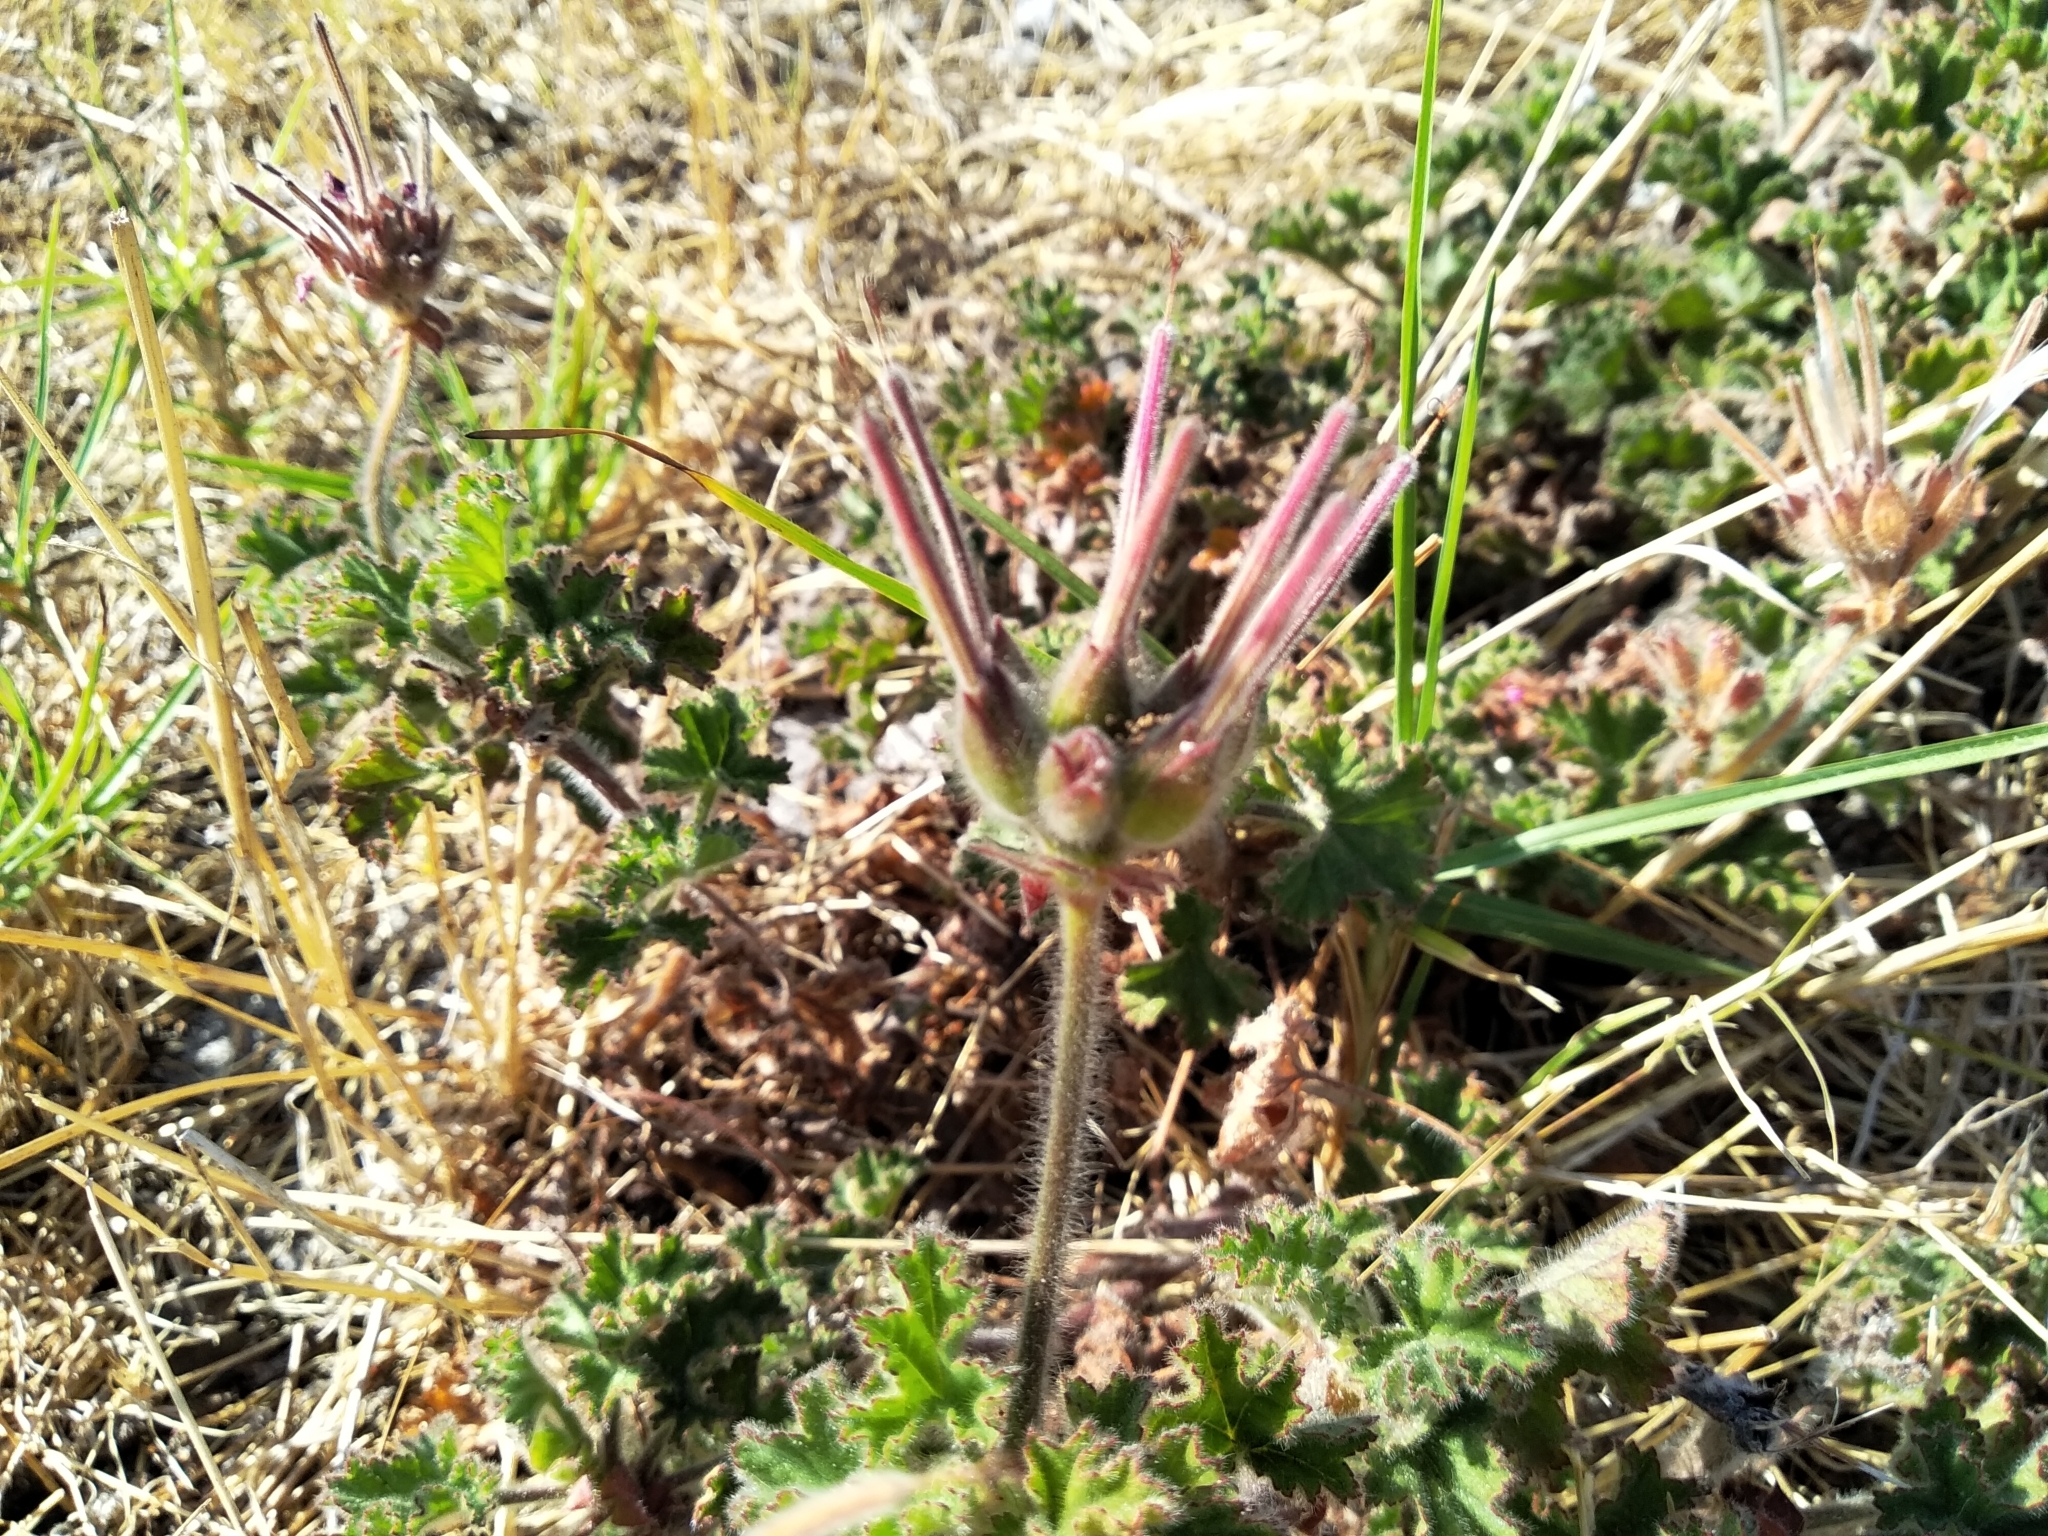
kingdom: Plantae
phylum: Tracheophyta
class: Magnoliopsida
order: Geraniales
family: Geraniaceae
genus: Pelargonium
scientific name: Pelargonium capitatum
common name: Rose scented geranium
